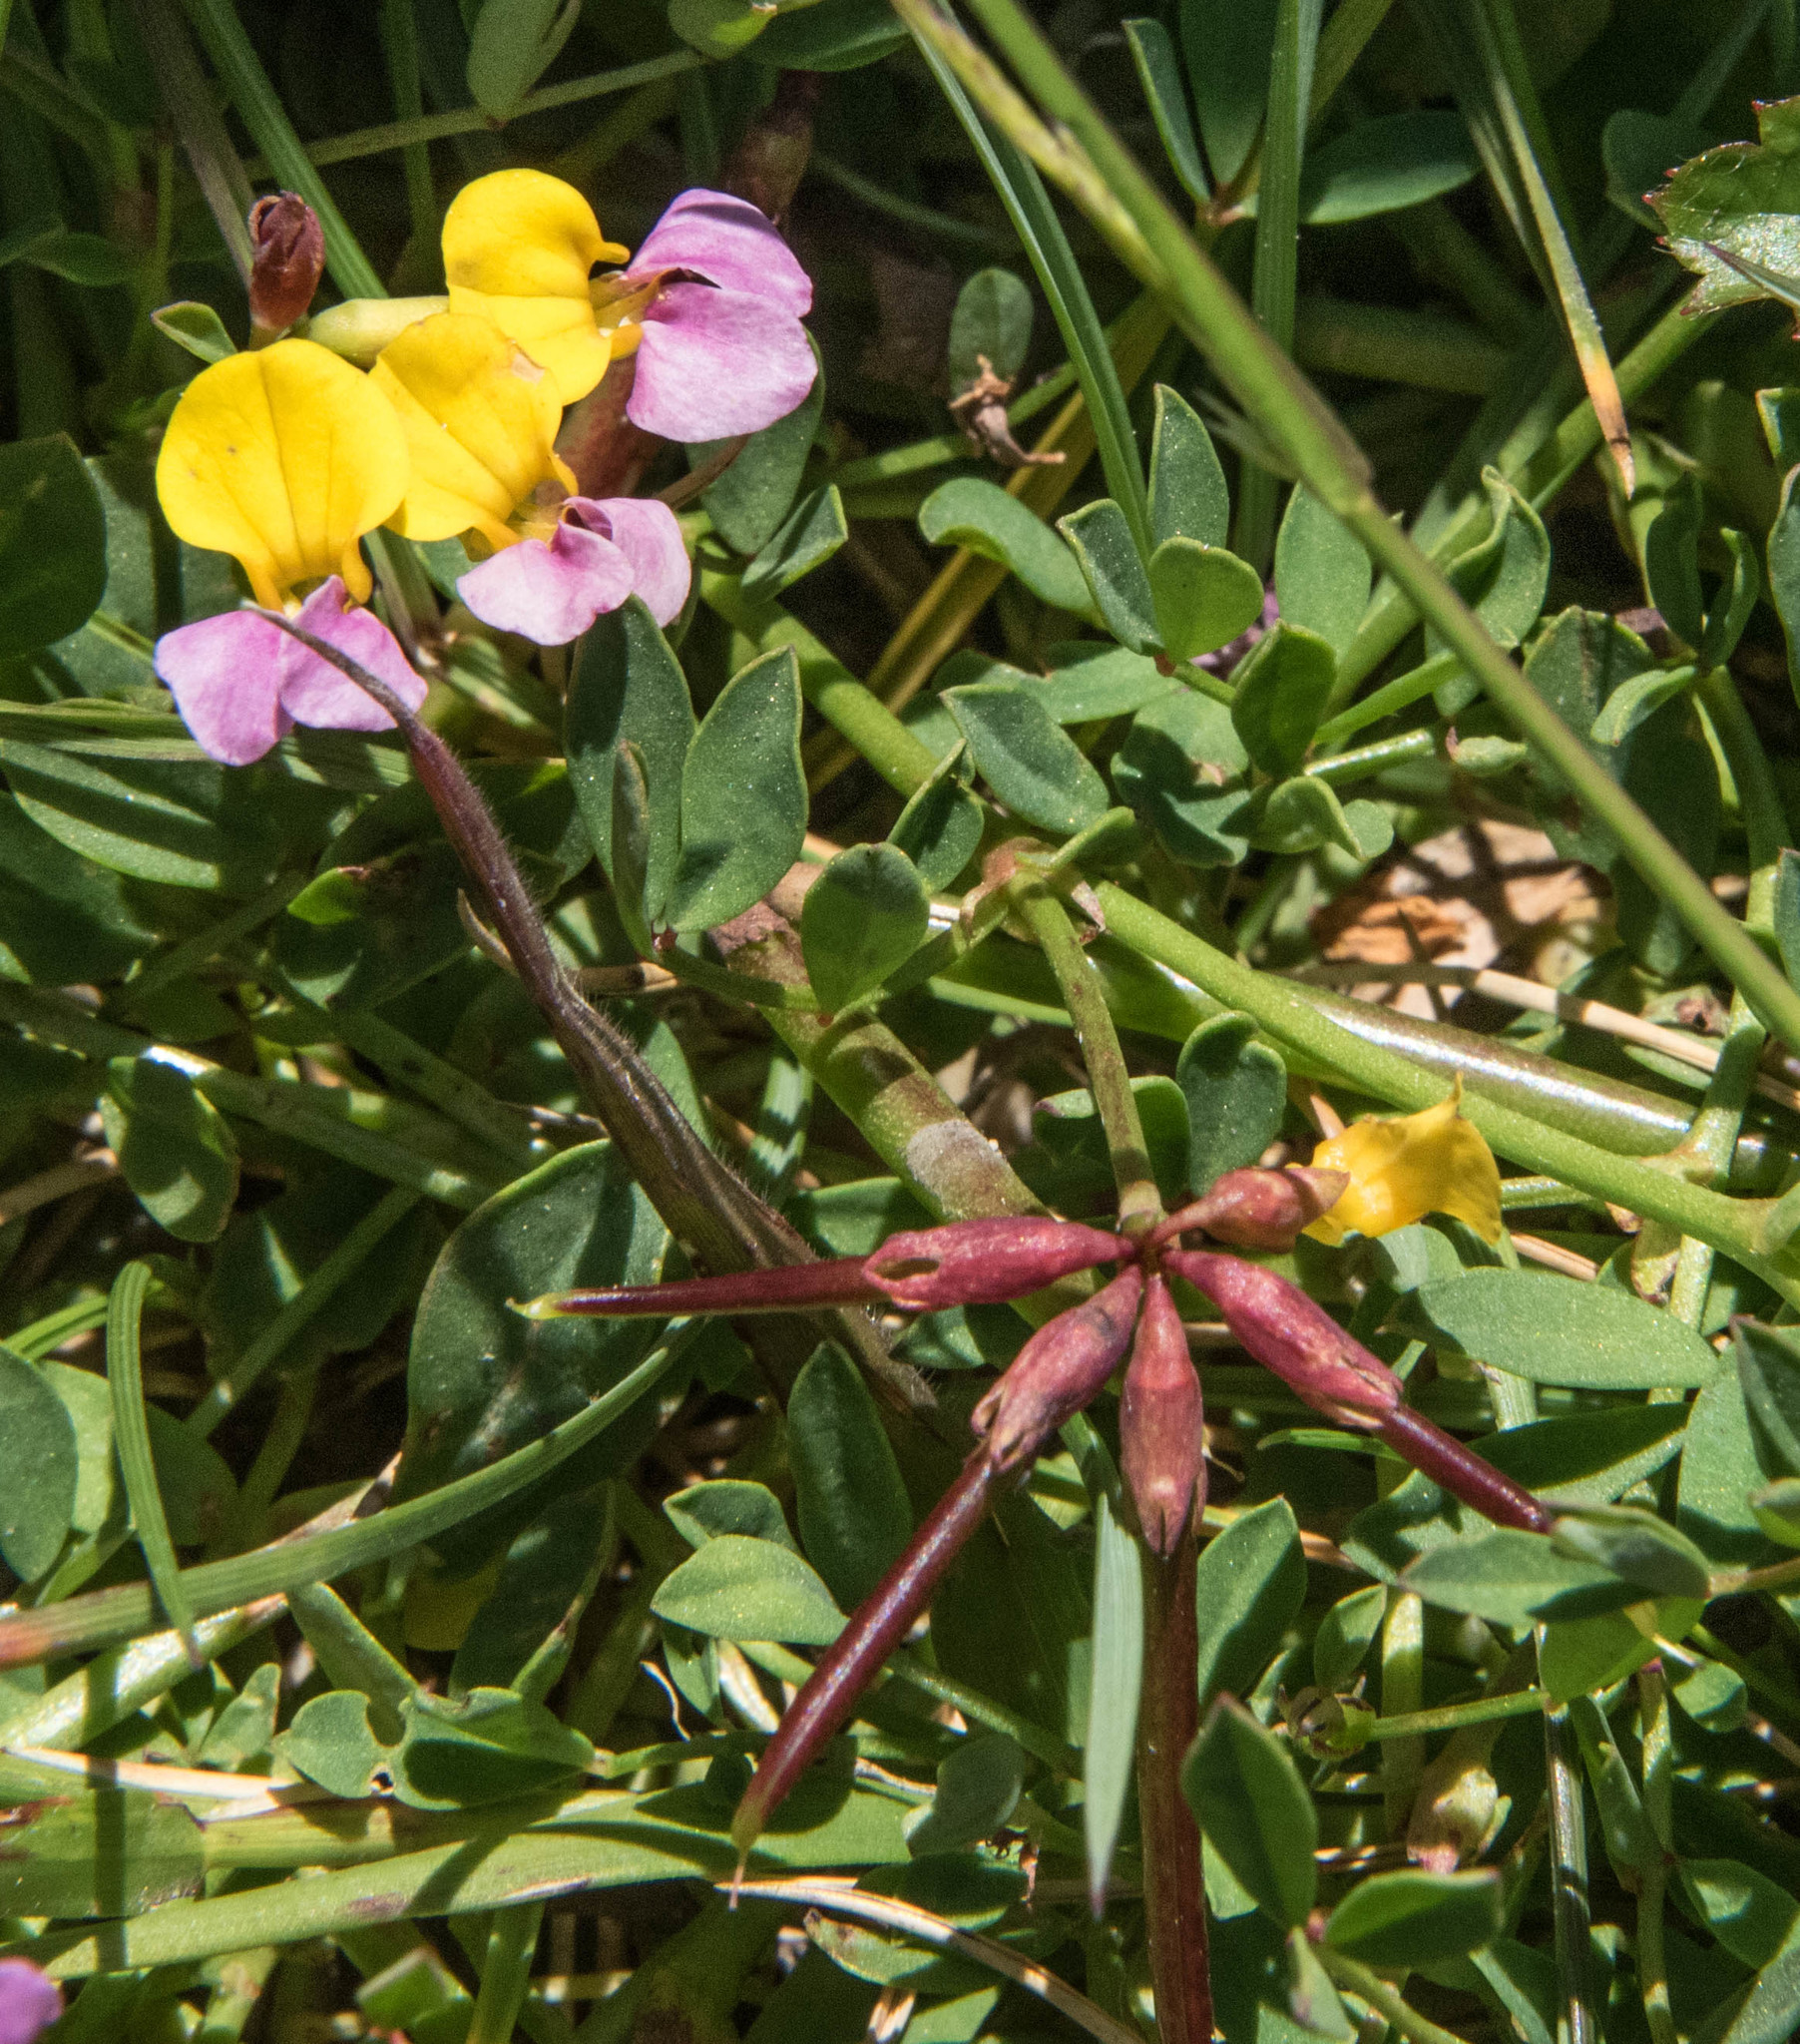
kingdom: Plantae
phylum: Tracheophyta
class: Magnoliopsida
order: Fabales
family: Fabaceae
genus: Hosackia
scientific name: Hosackia gracilis
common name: Seaside bird's-foot lotus
